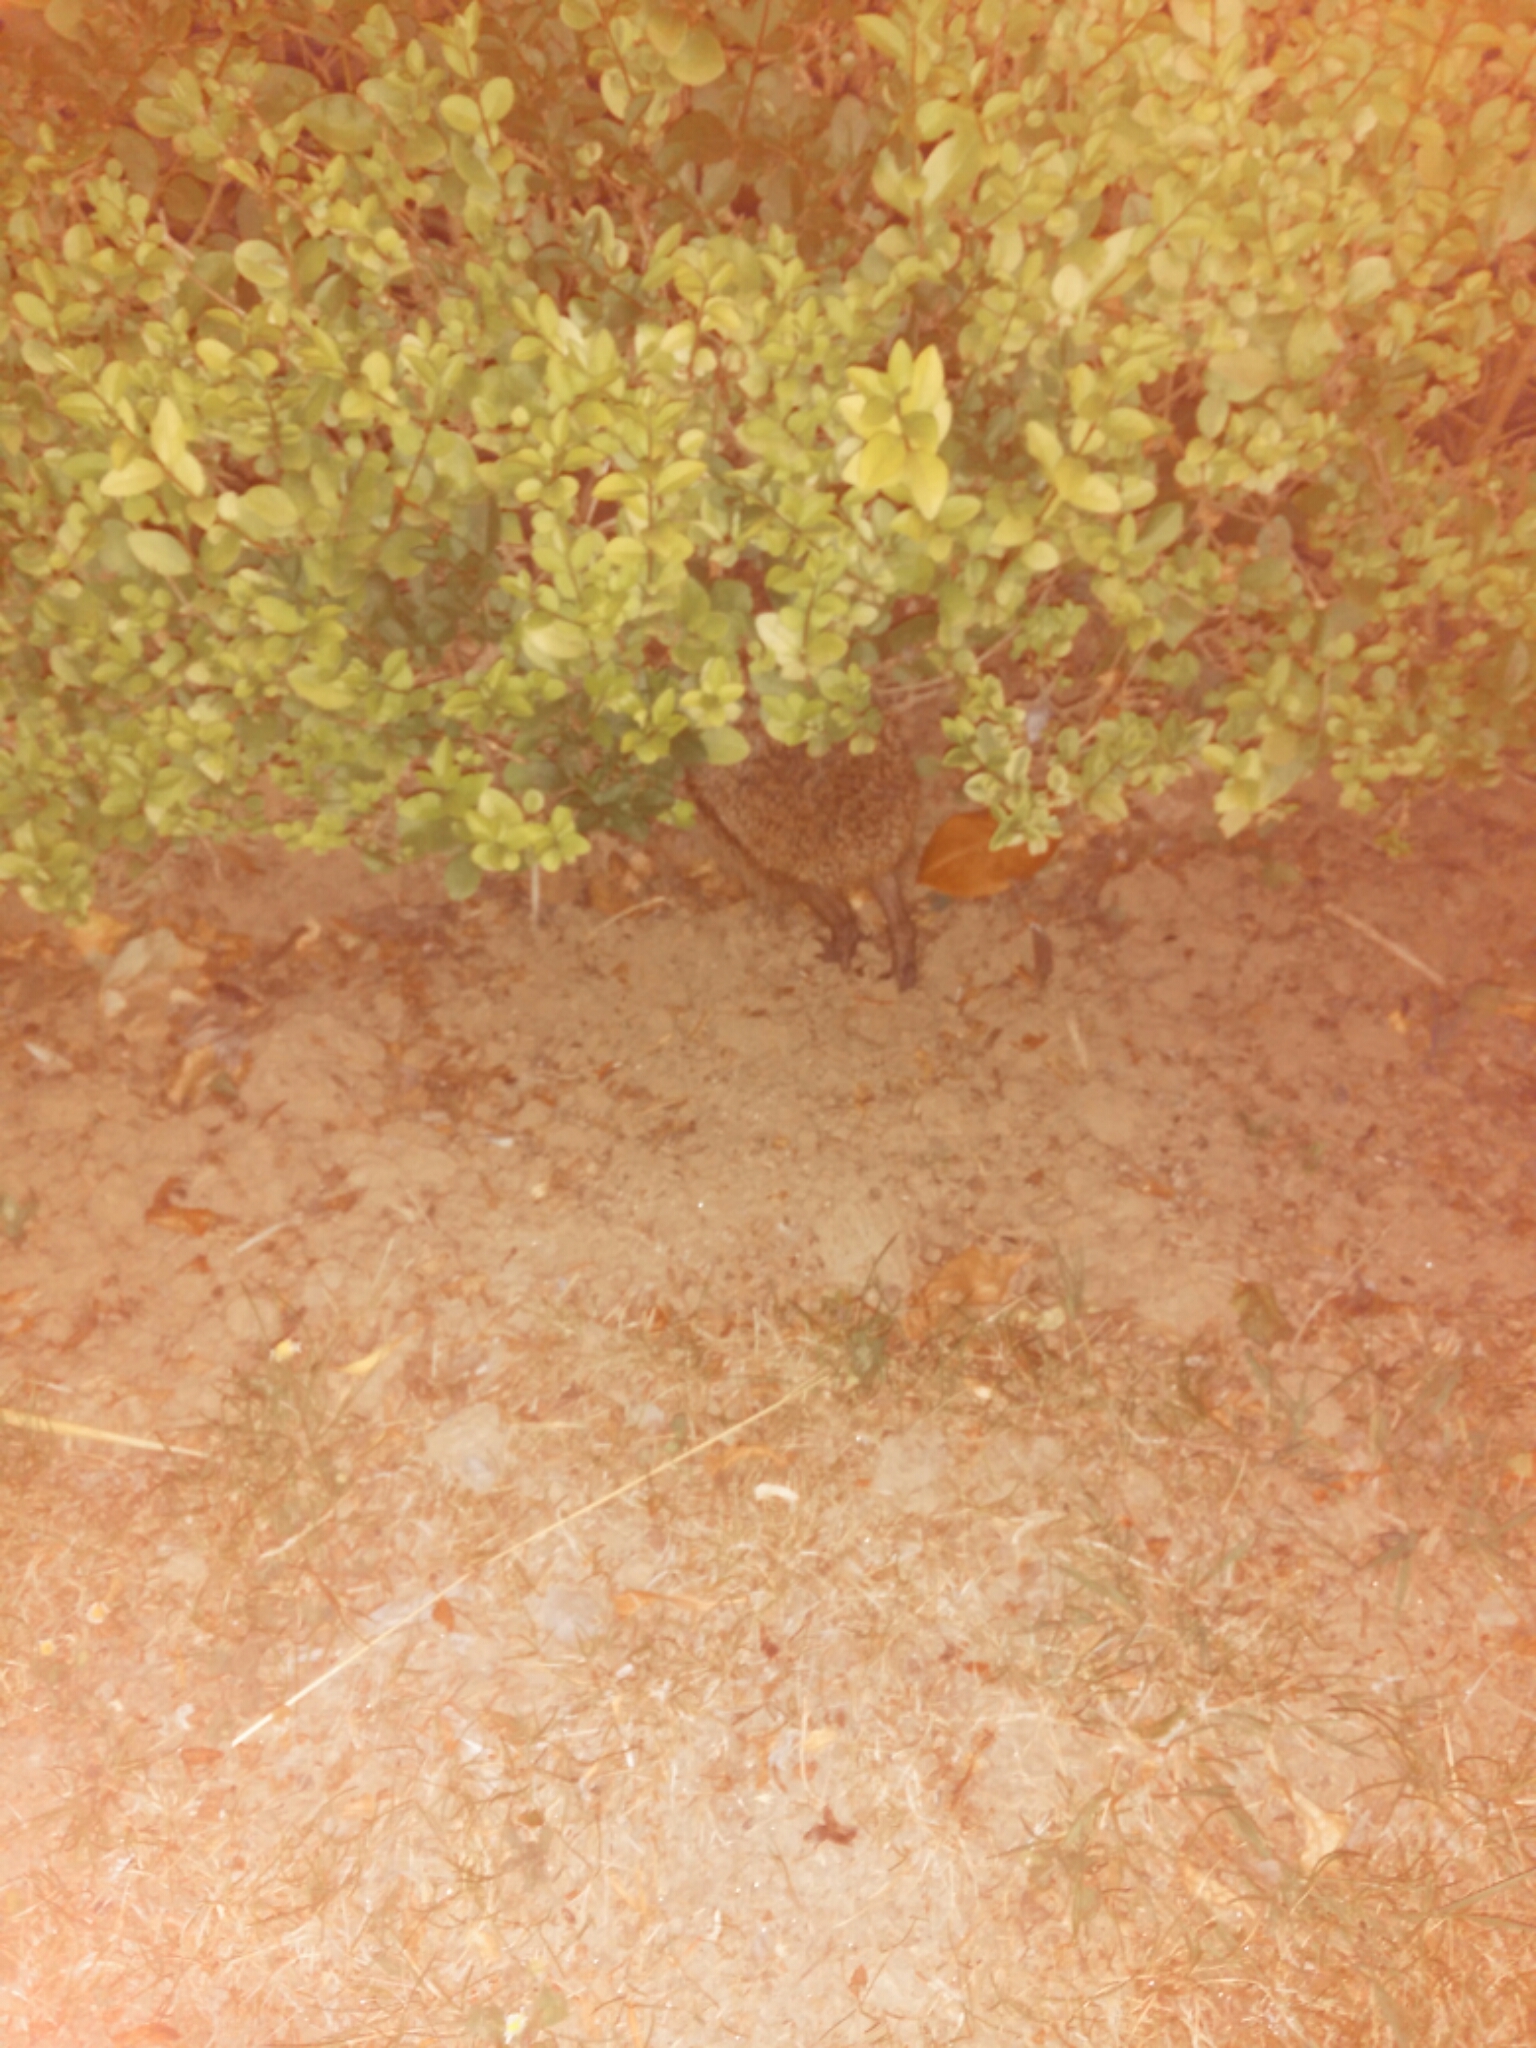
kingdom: Animalia
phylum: Chordata
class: Mammalia
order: Erinaceomorpha
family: Erinaceidae
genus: Erinaceus
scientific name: Erinaceus europaeus
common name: West european hedgehog
